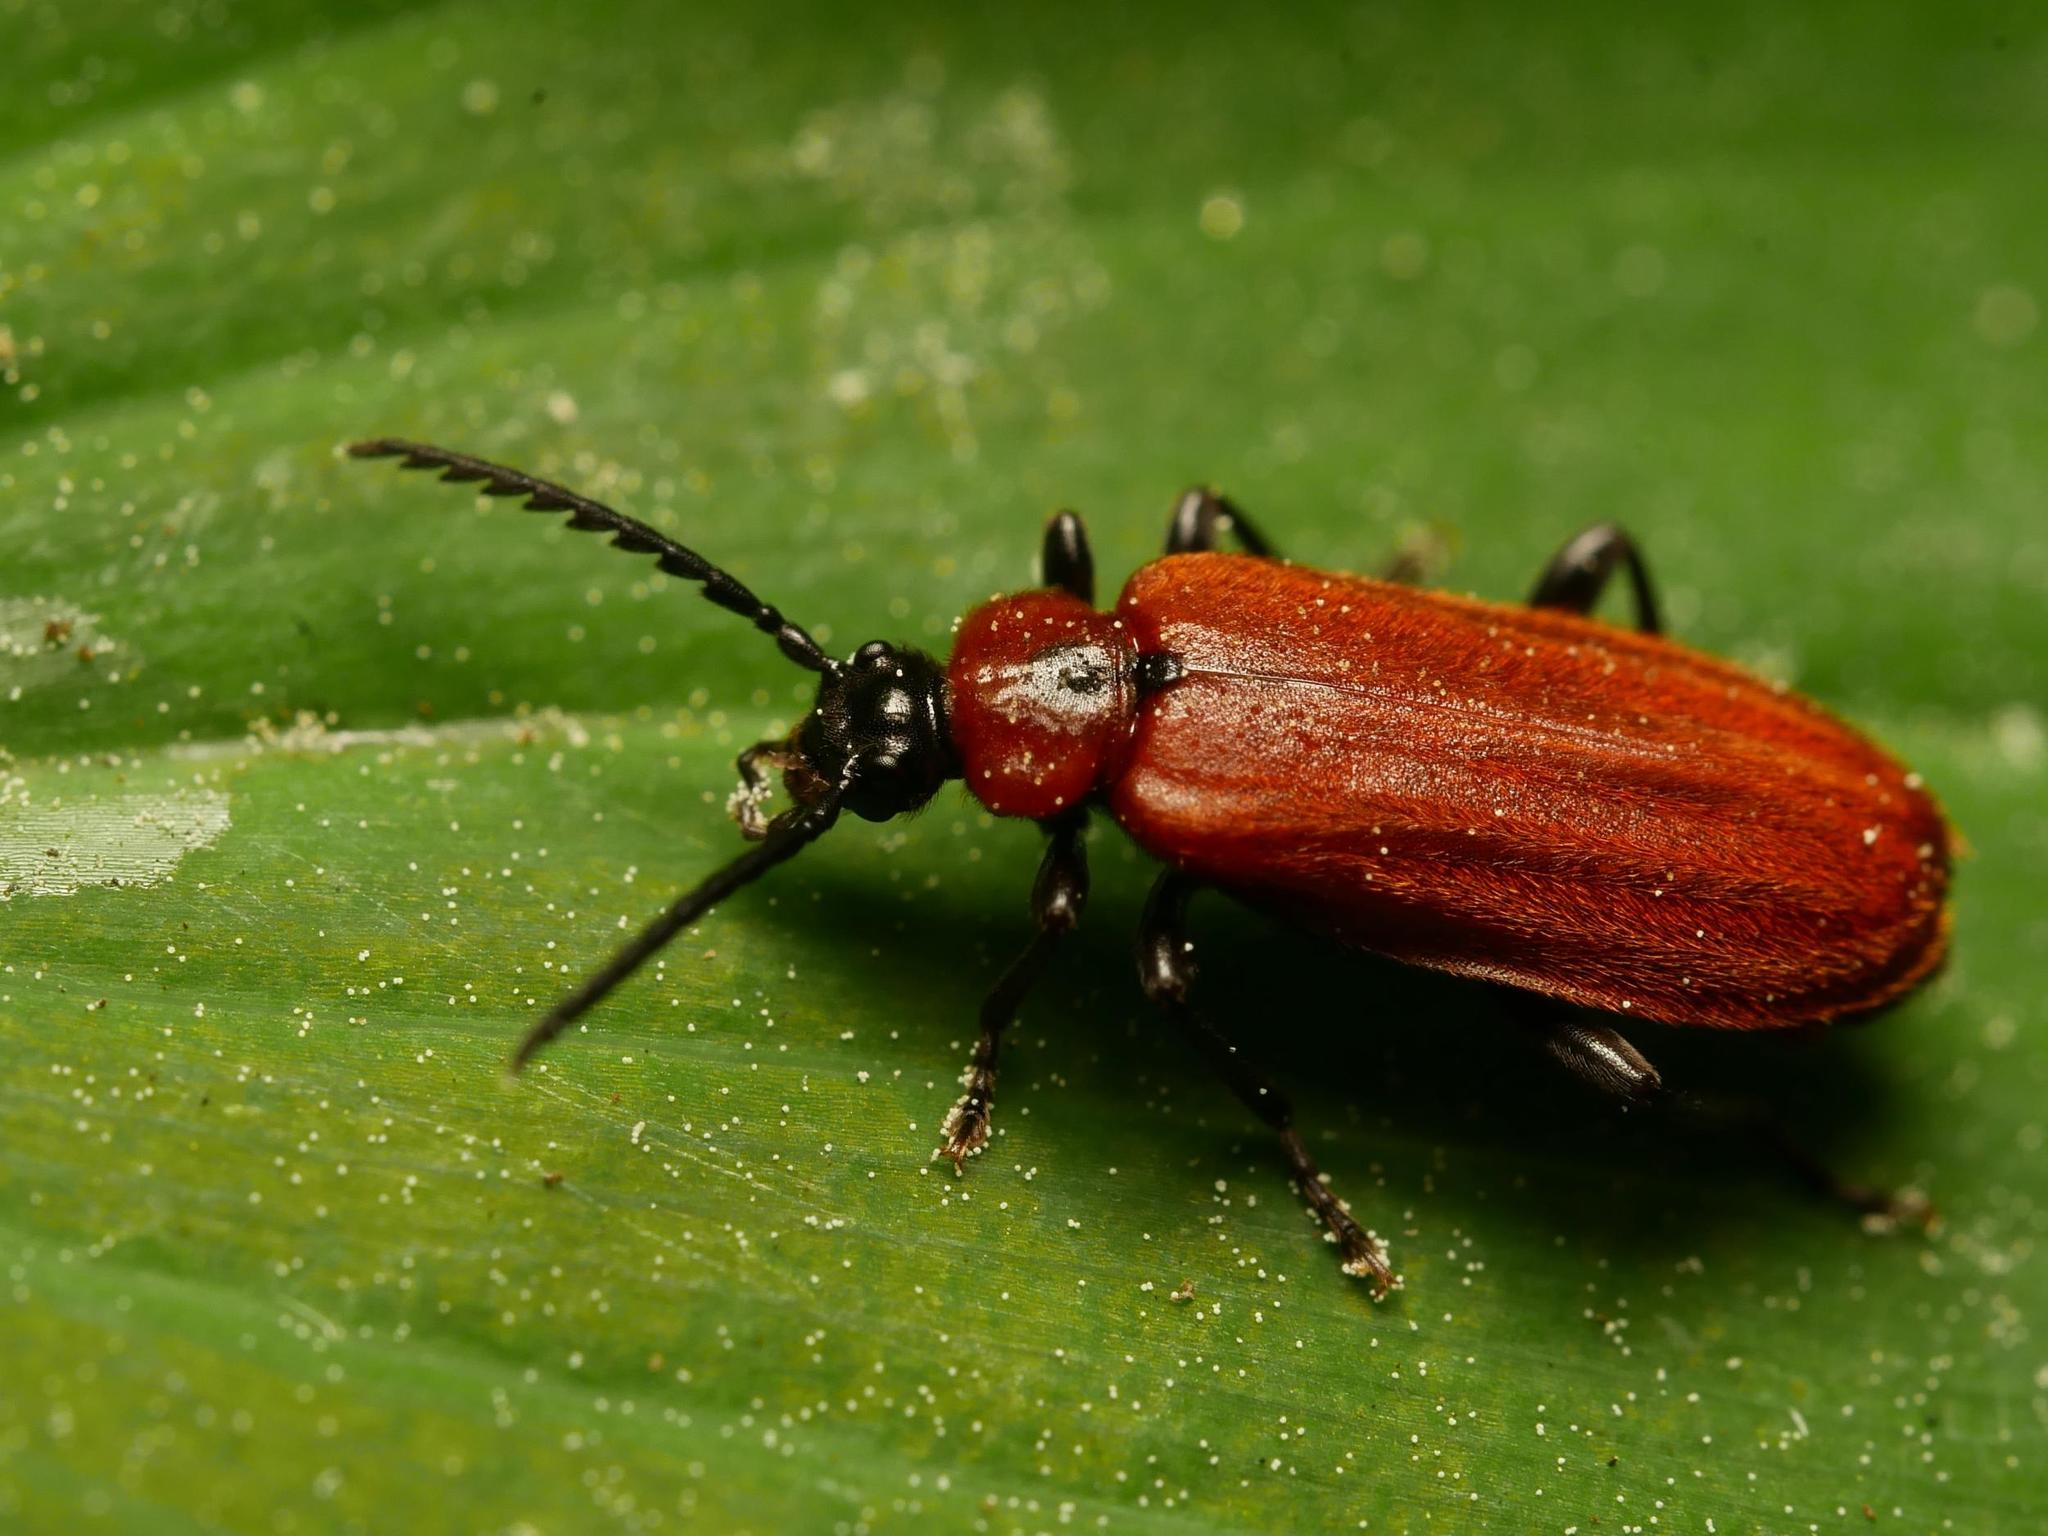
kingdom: Animalia
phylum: Arthropoda
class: Insecta
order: Coleoptera
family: Pyrochroidae
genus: Schizotus
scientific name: Schizotus pectinicornis
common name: Scarce cardinal beetle
